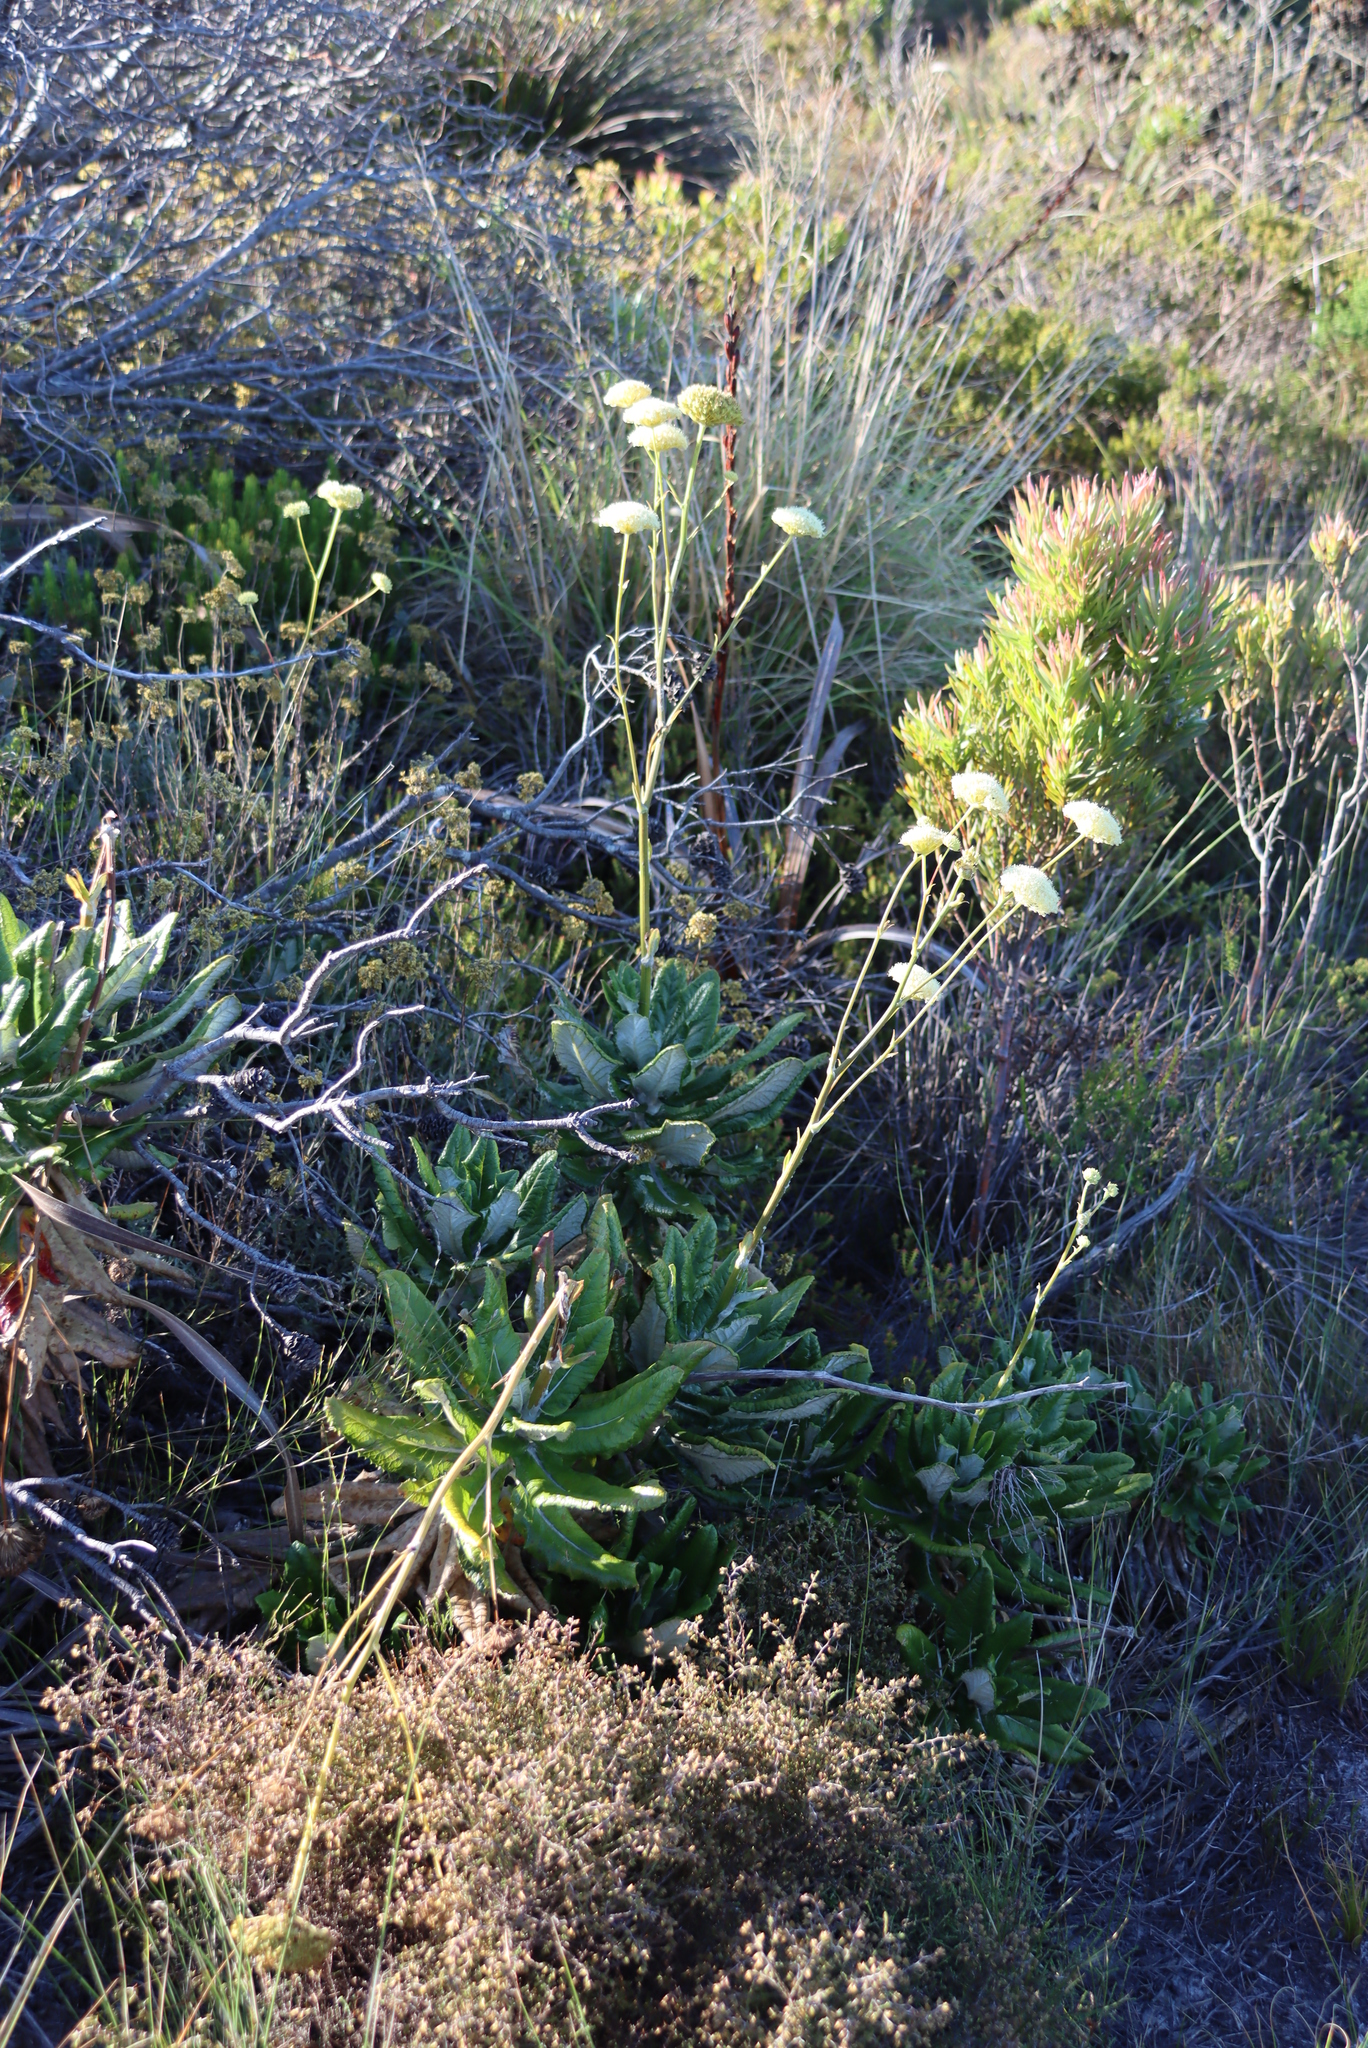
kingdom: Plantae
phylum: Tracheophyta
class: Magnoliopsida
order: Apiales
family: Apiaceae
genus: Hermas
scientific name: Hermas villosa
